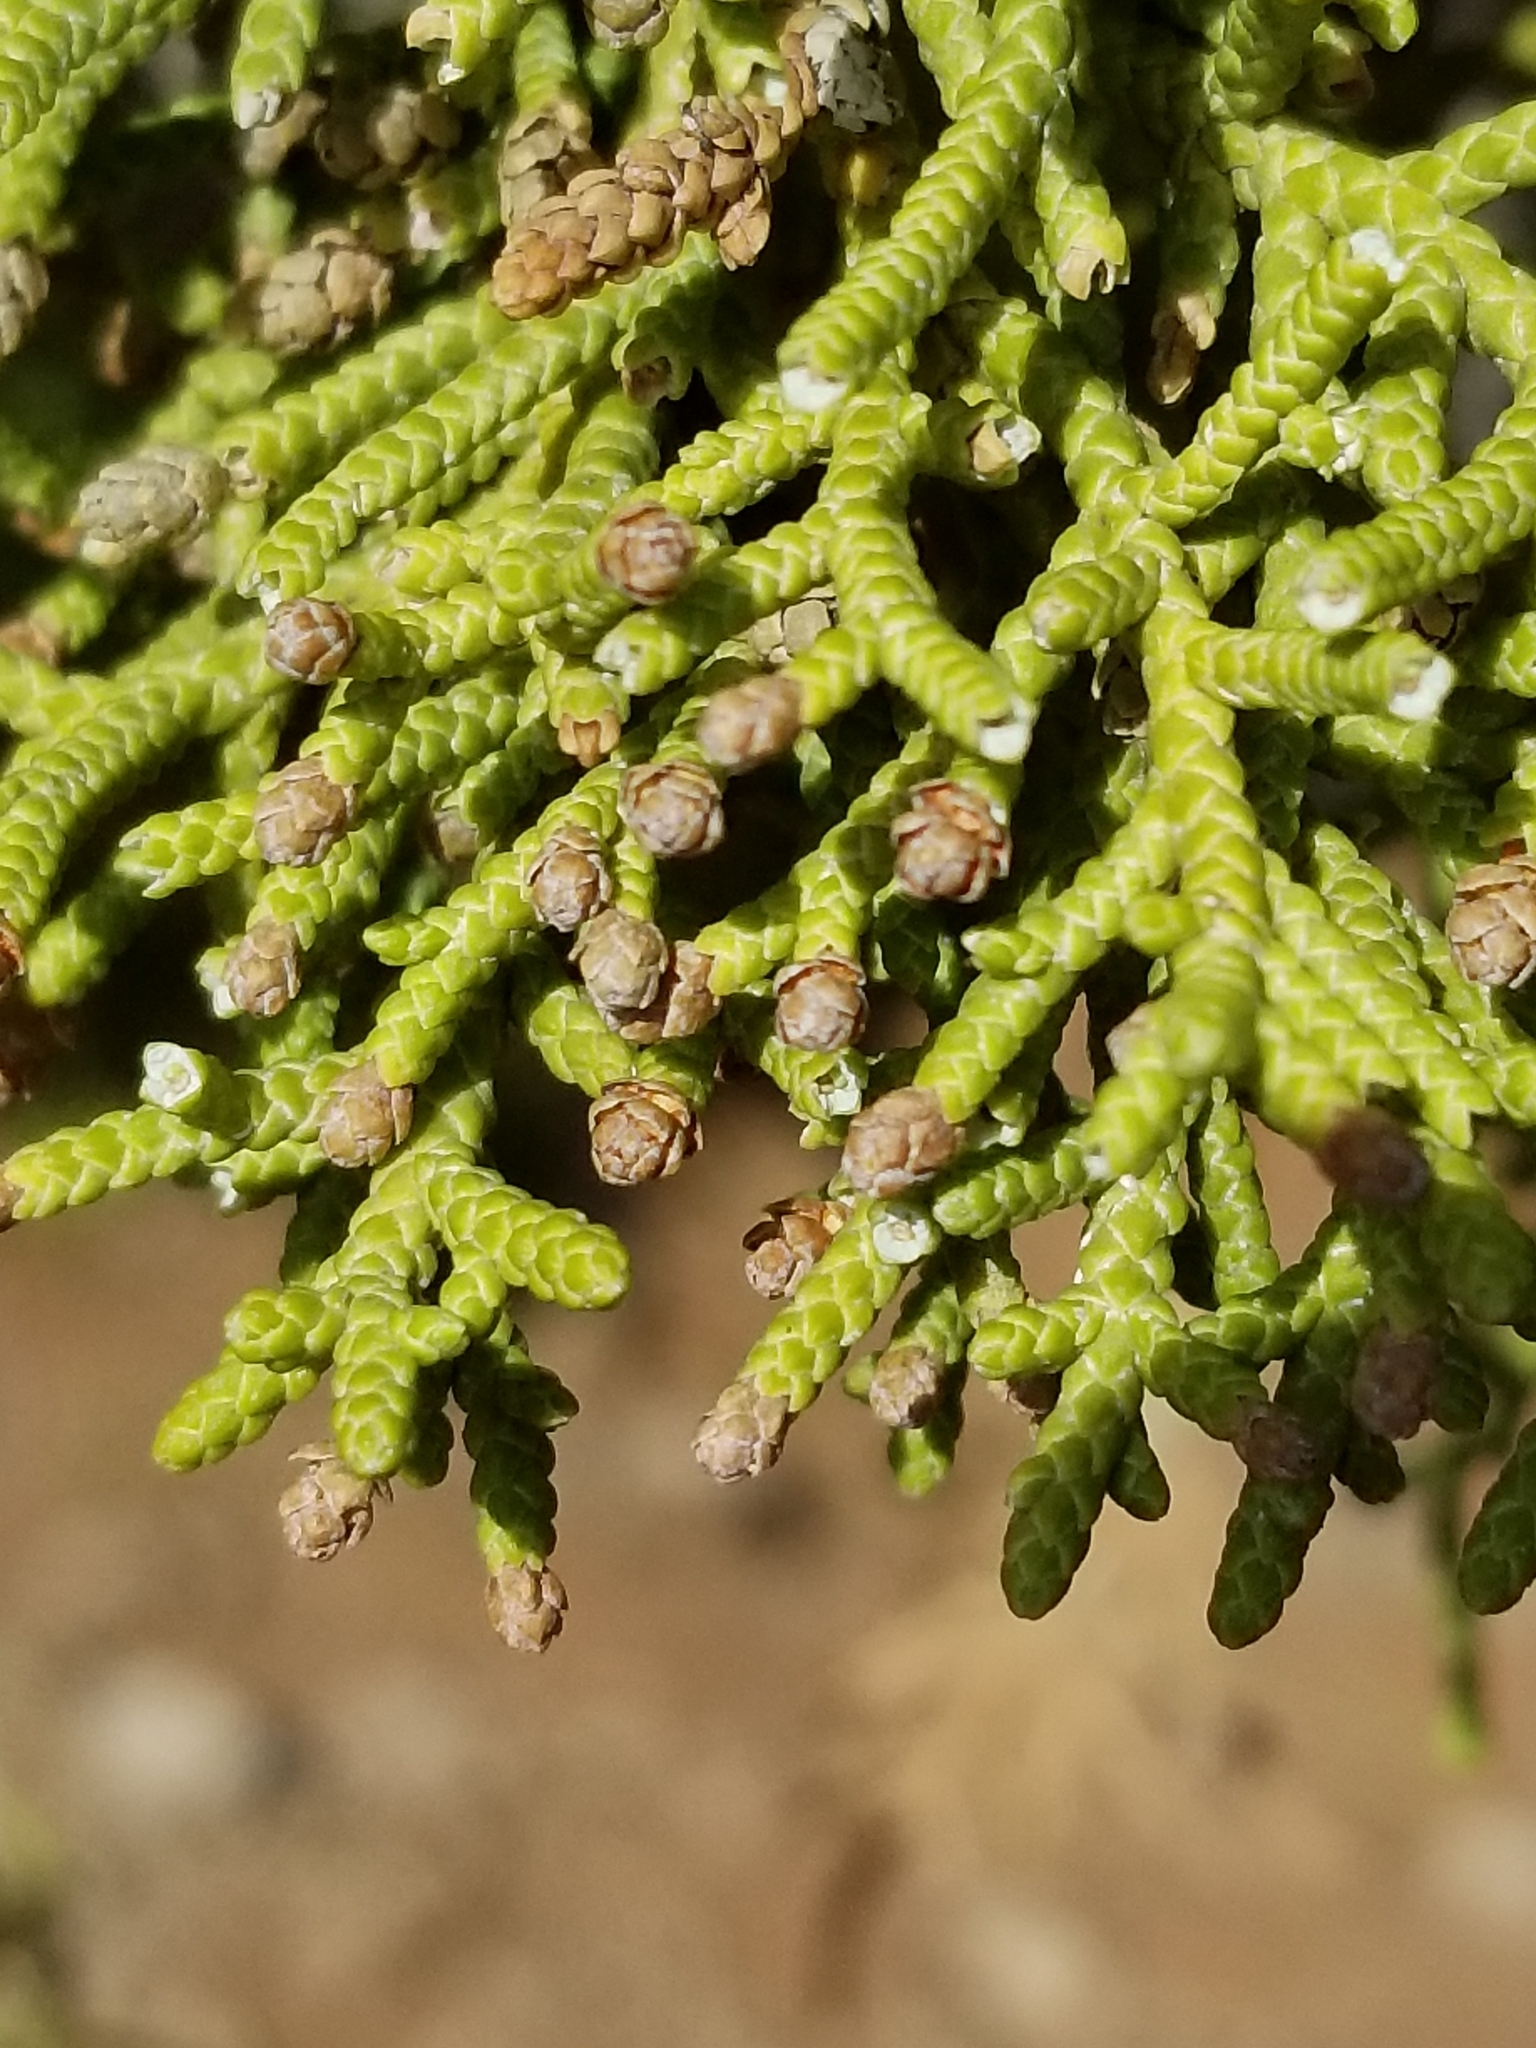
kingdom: Plantae
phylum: Tracheophyta
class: Pinopsida
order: Pinales
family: Cupressaceae
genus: Juniperus
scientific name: Juniperus osteosperma
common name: Utah juniper
